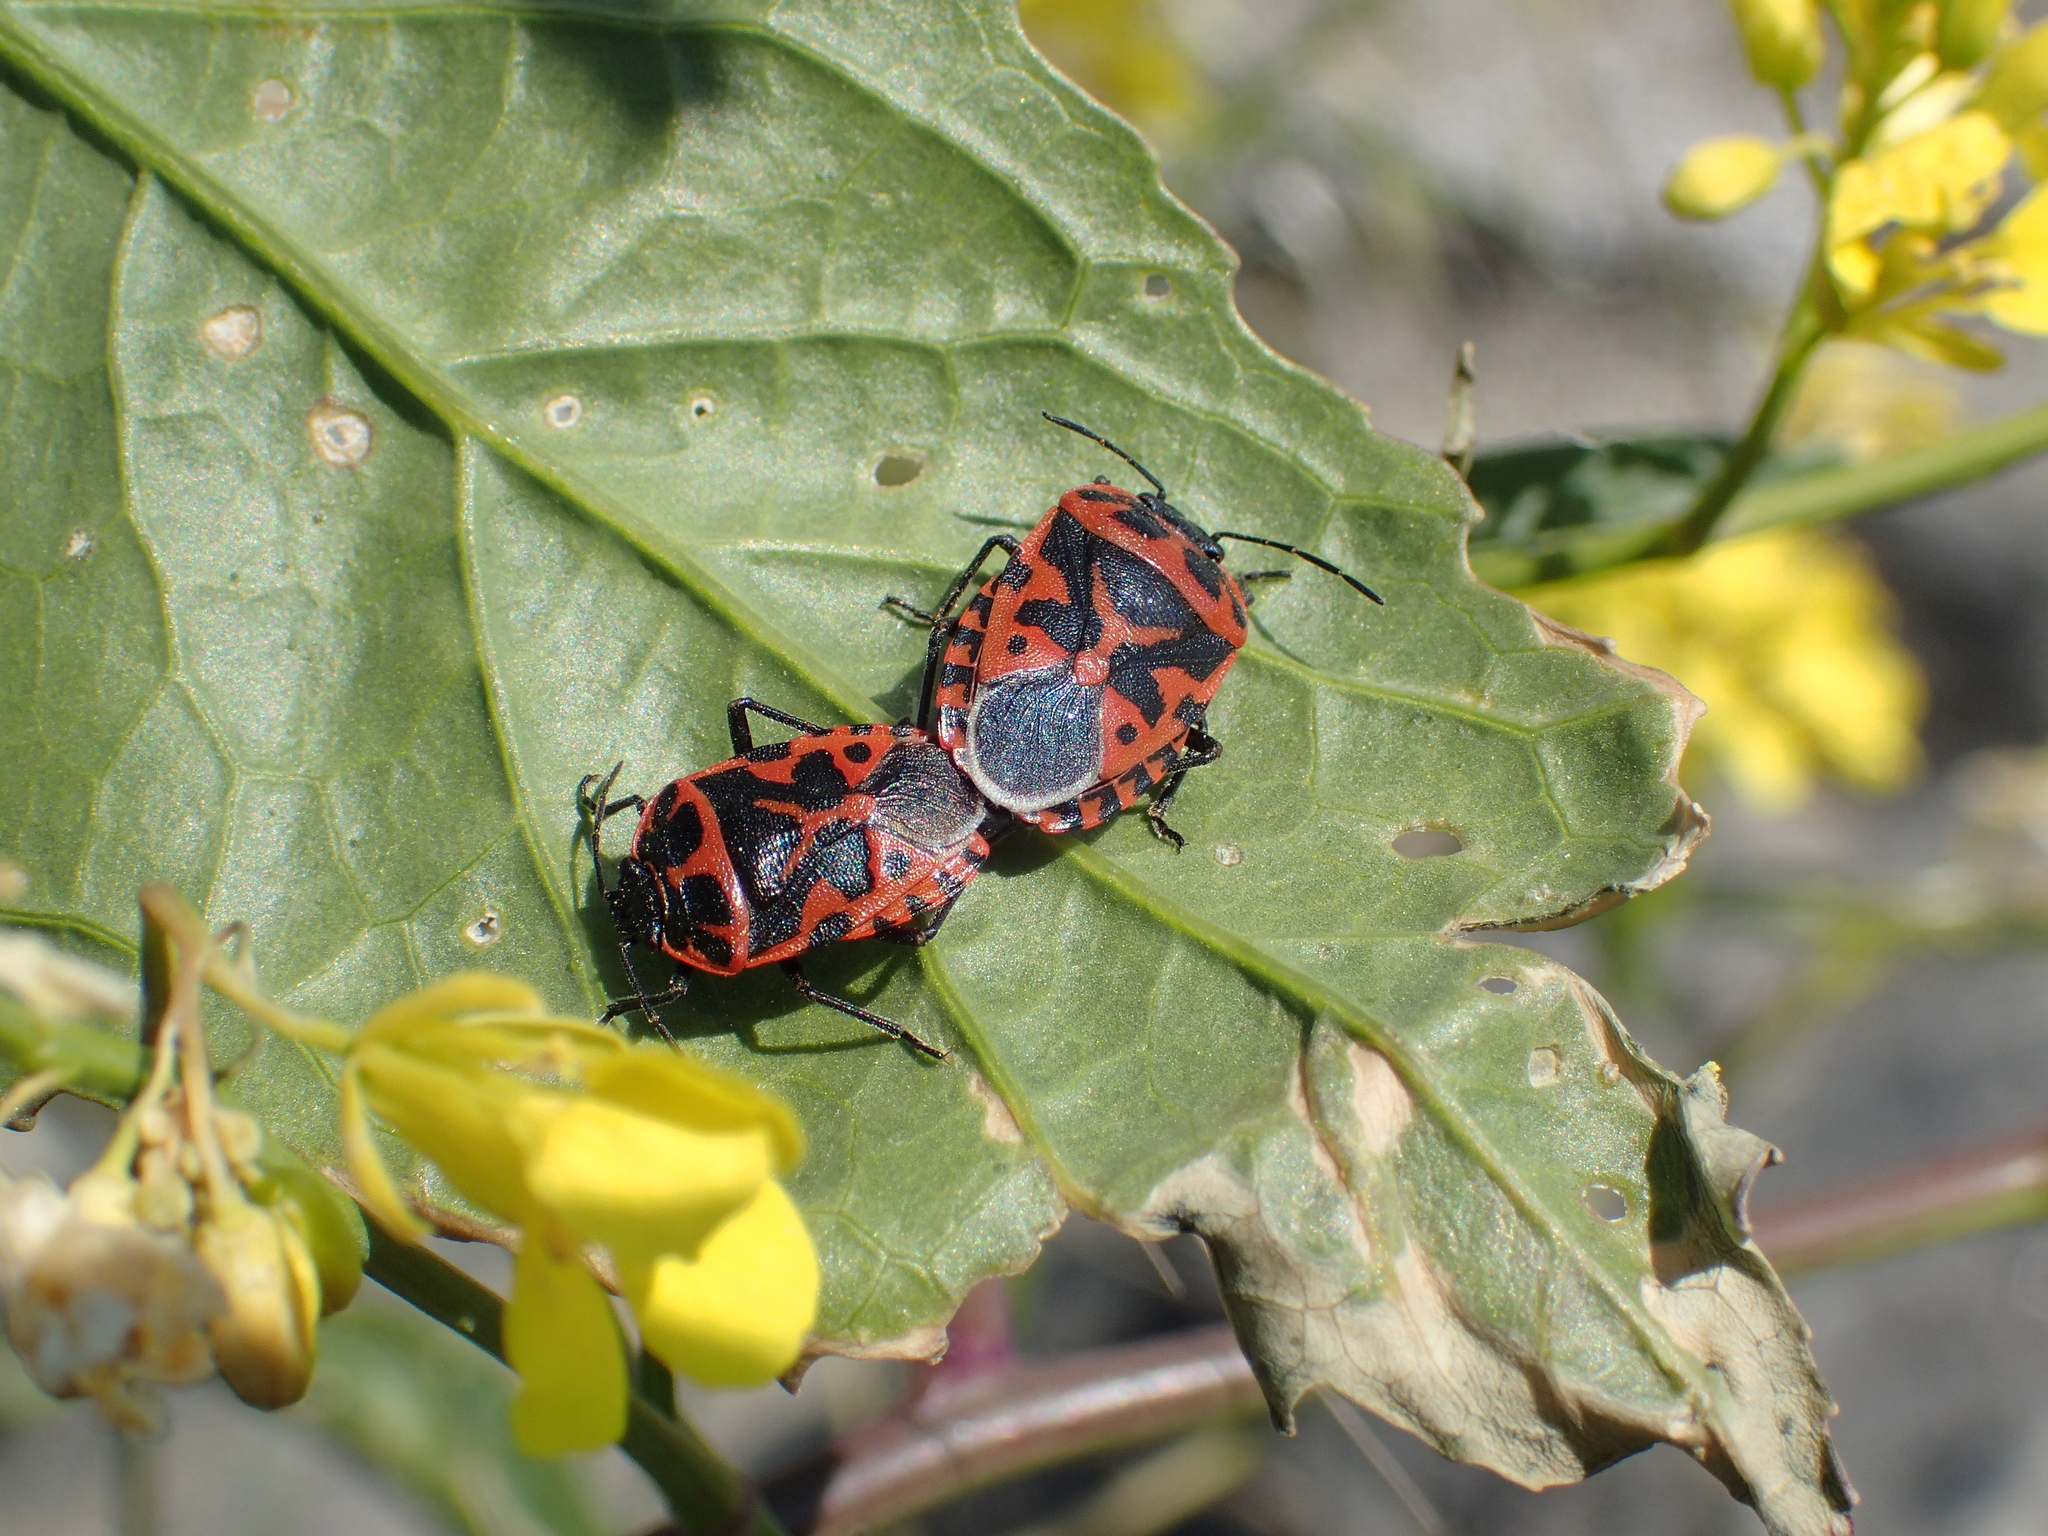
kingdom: Animalia
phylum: Arthropoda
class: Insecta
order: Hemiptera
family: Pentatomidae
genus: Eurydema
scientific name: Eurydema ventralis
